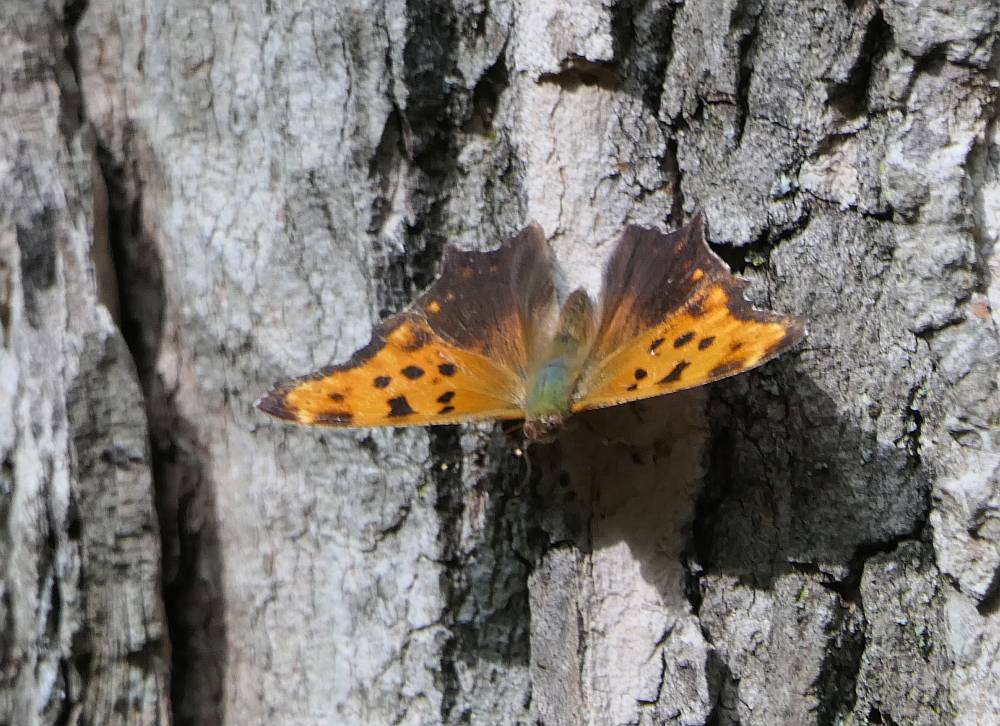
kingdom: Animalia
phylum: Arthropoda
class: Insecta
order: Lepidoptera
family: Nymphalidae
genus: Polygonia
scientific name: Polygonia comma
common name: Eastern comma
